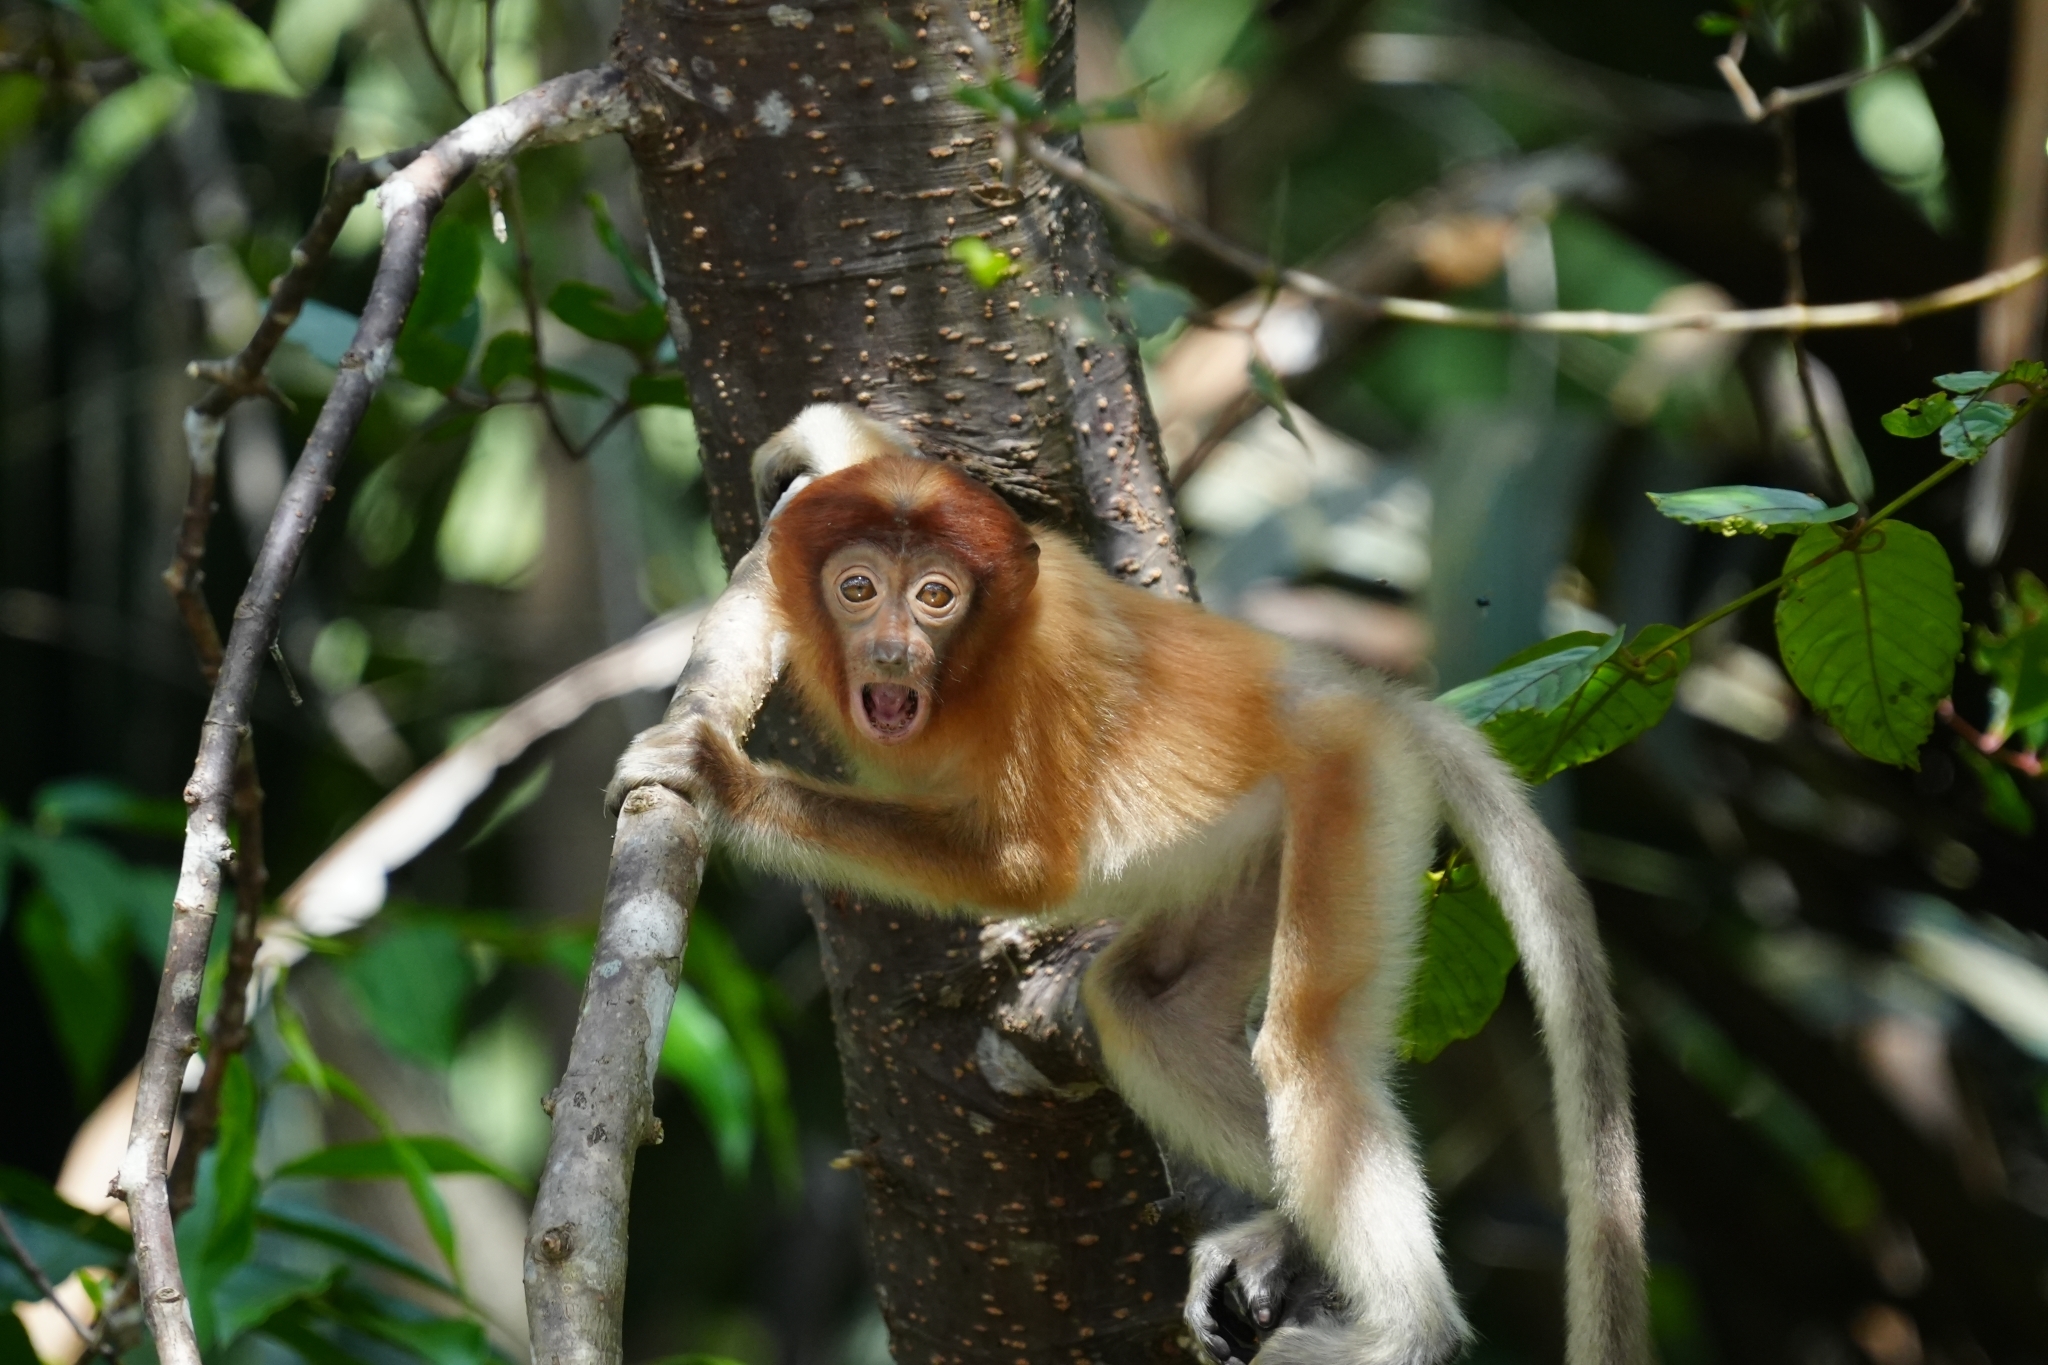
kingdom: Animalia
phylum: Chordata
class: Mammalia
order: Primates
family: Cercopithecidae
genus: Nasalis
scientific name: Nasalis larvatus
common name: Proboscis monkey
